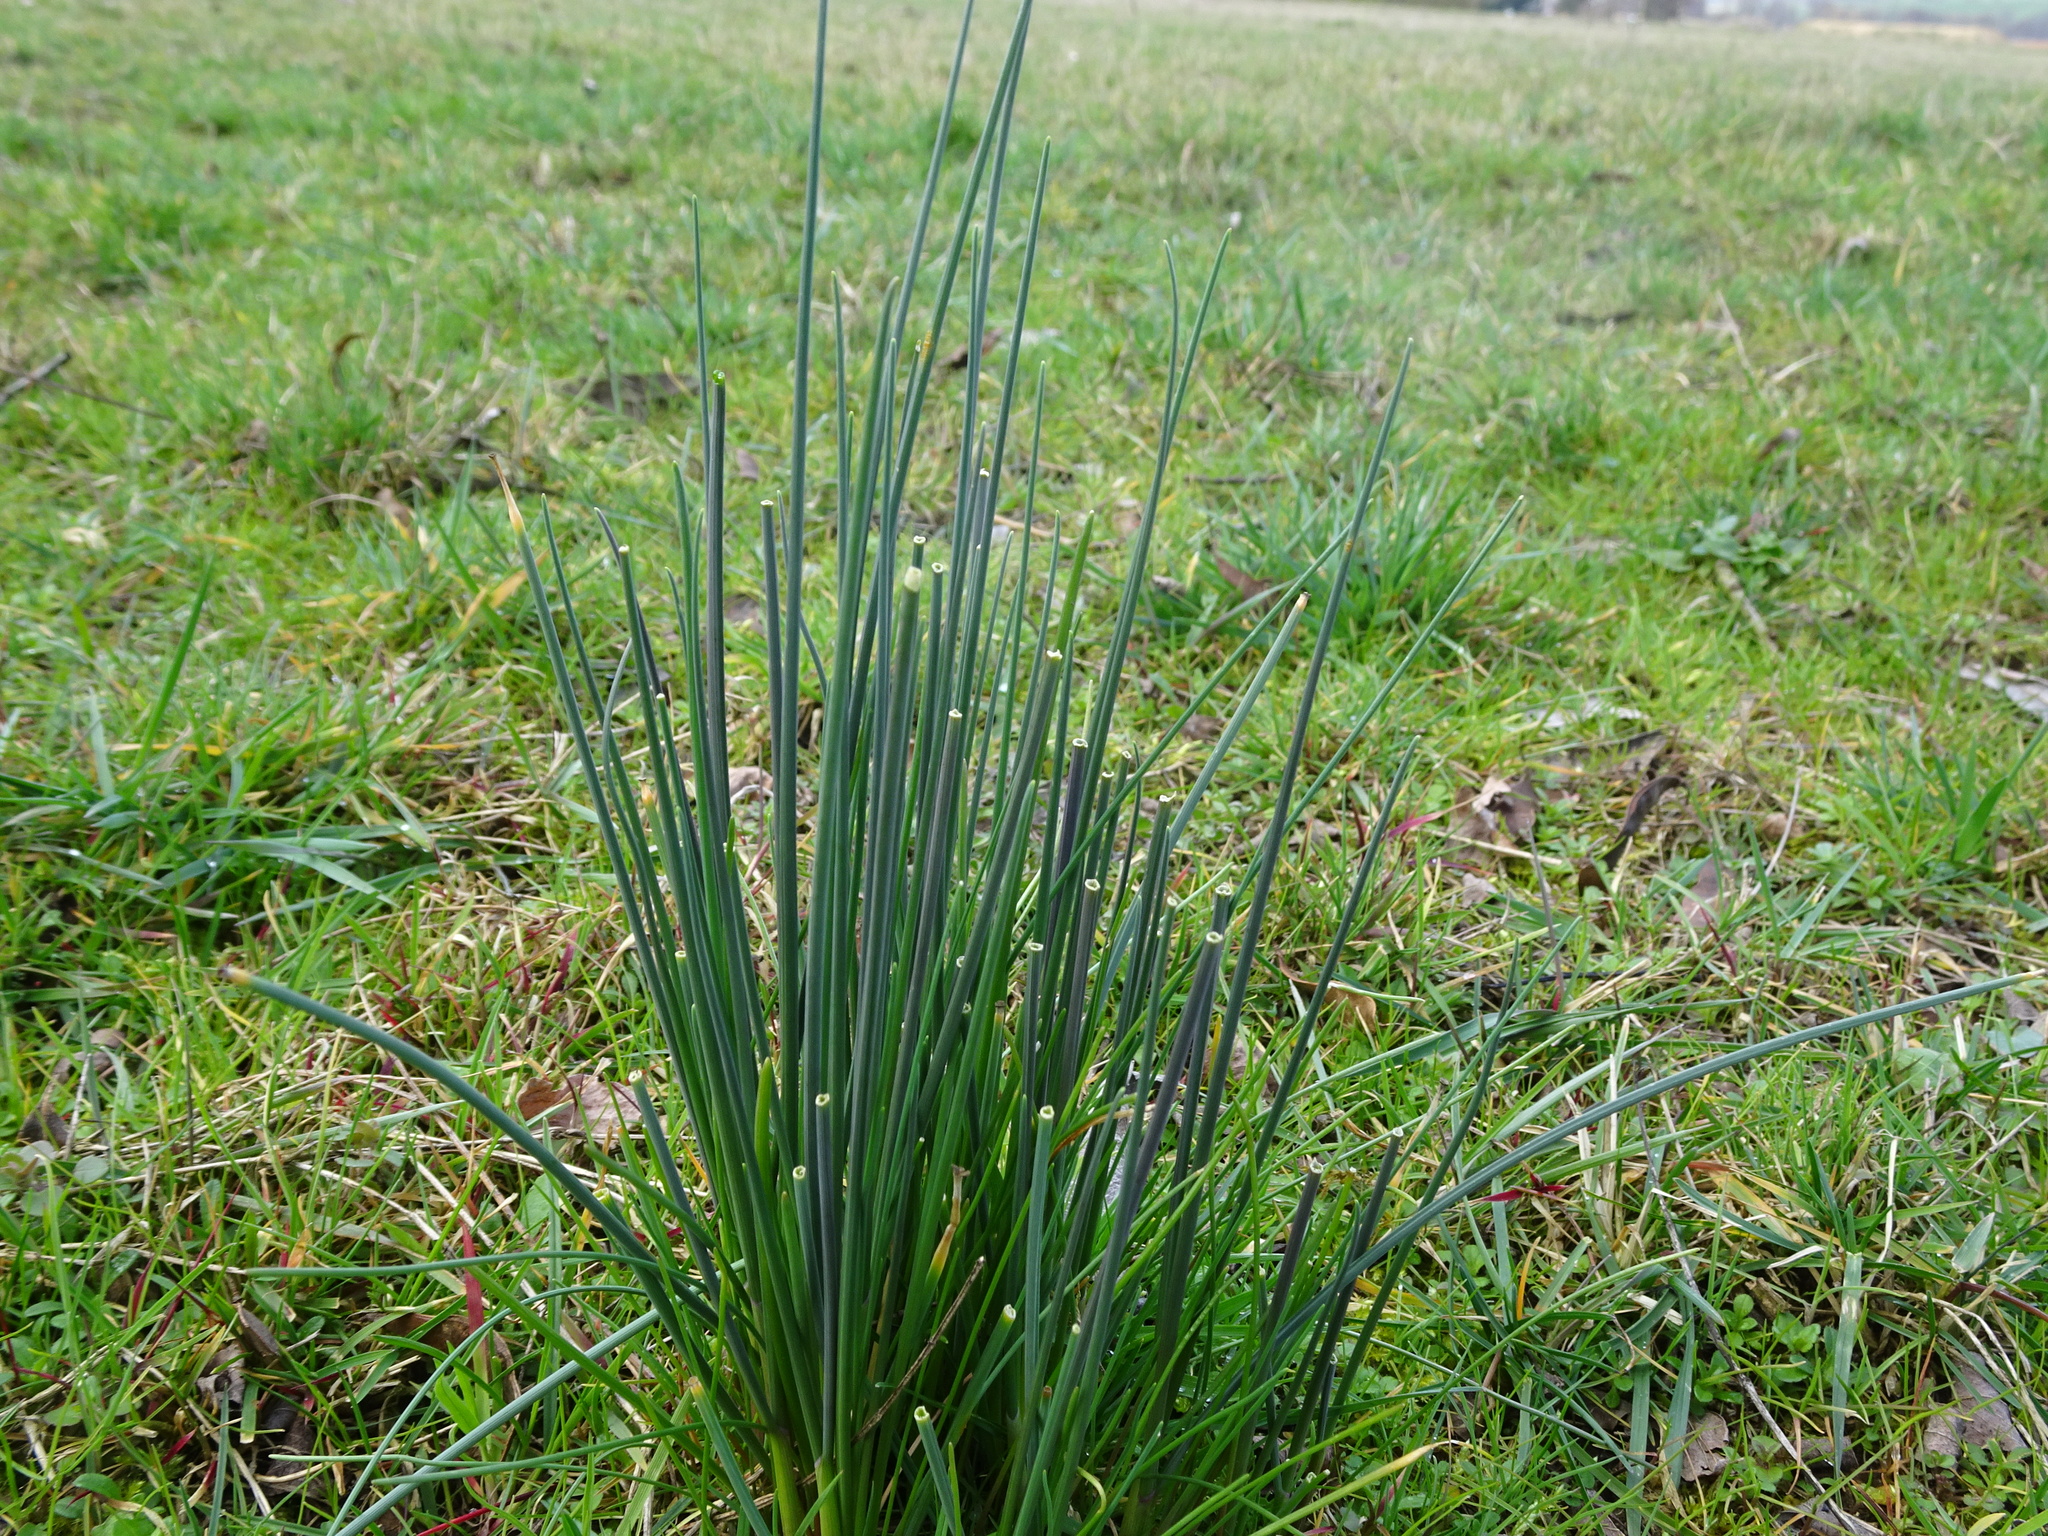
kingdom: Plantae
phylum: Tracheophyta
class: Liliopsida
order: Asparagales
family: Amaryllidaceae
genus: Allium
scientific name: Allium schoenoprasum
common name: Chives
